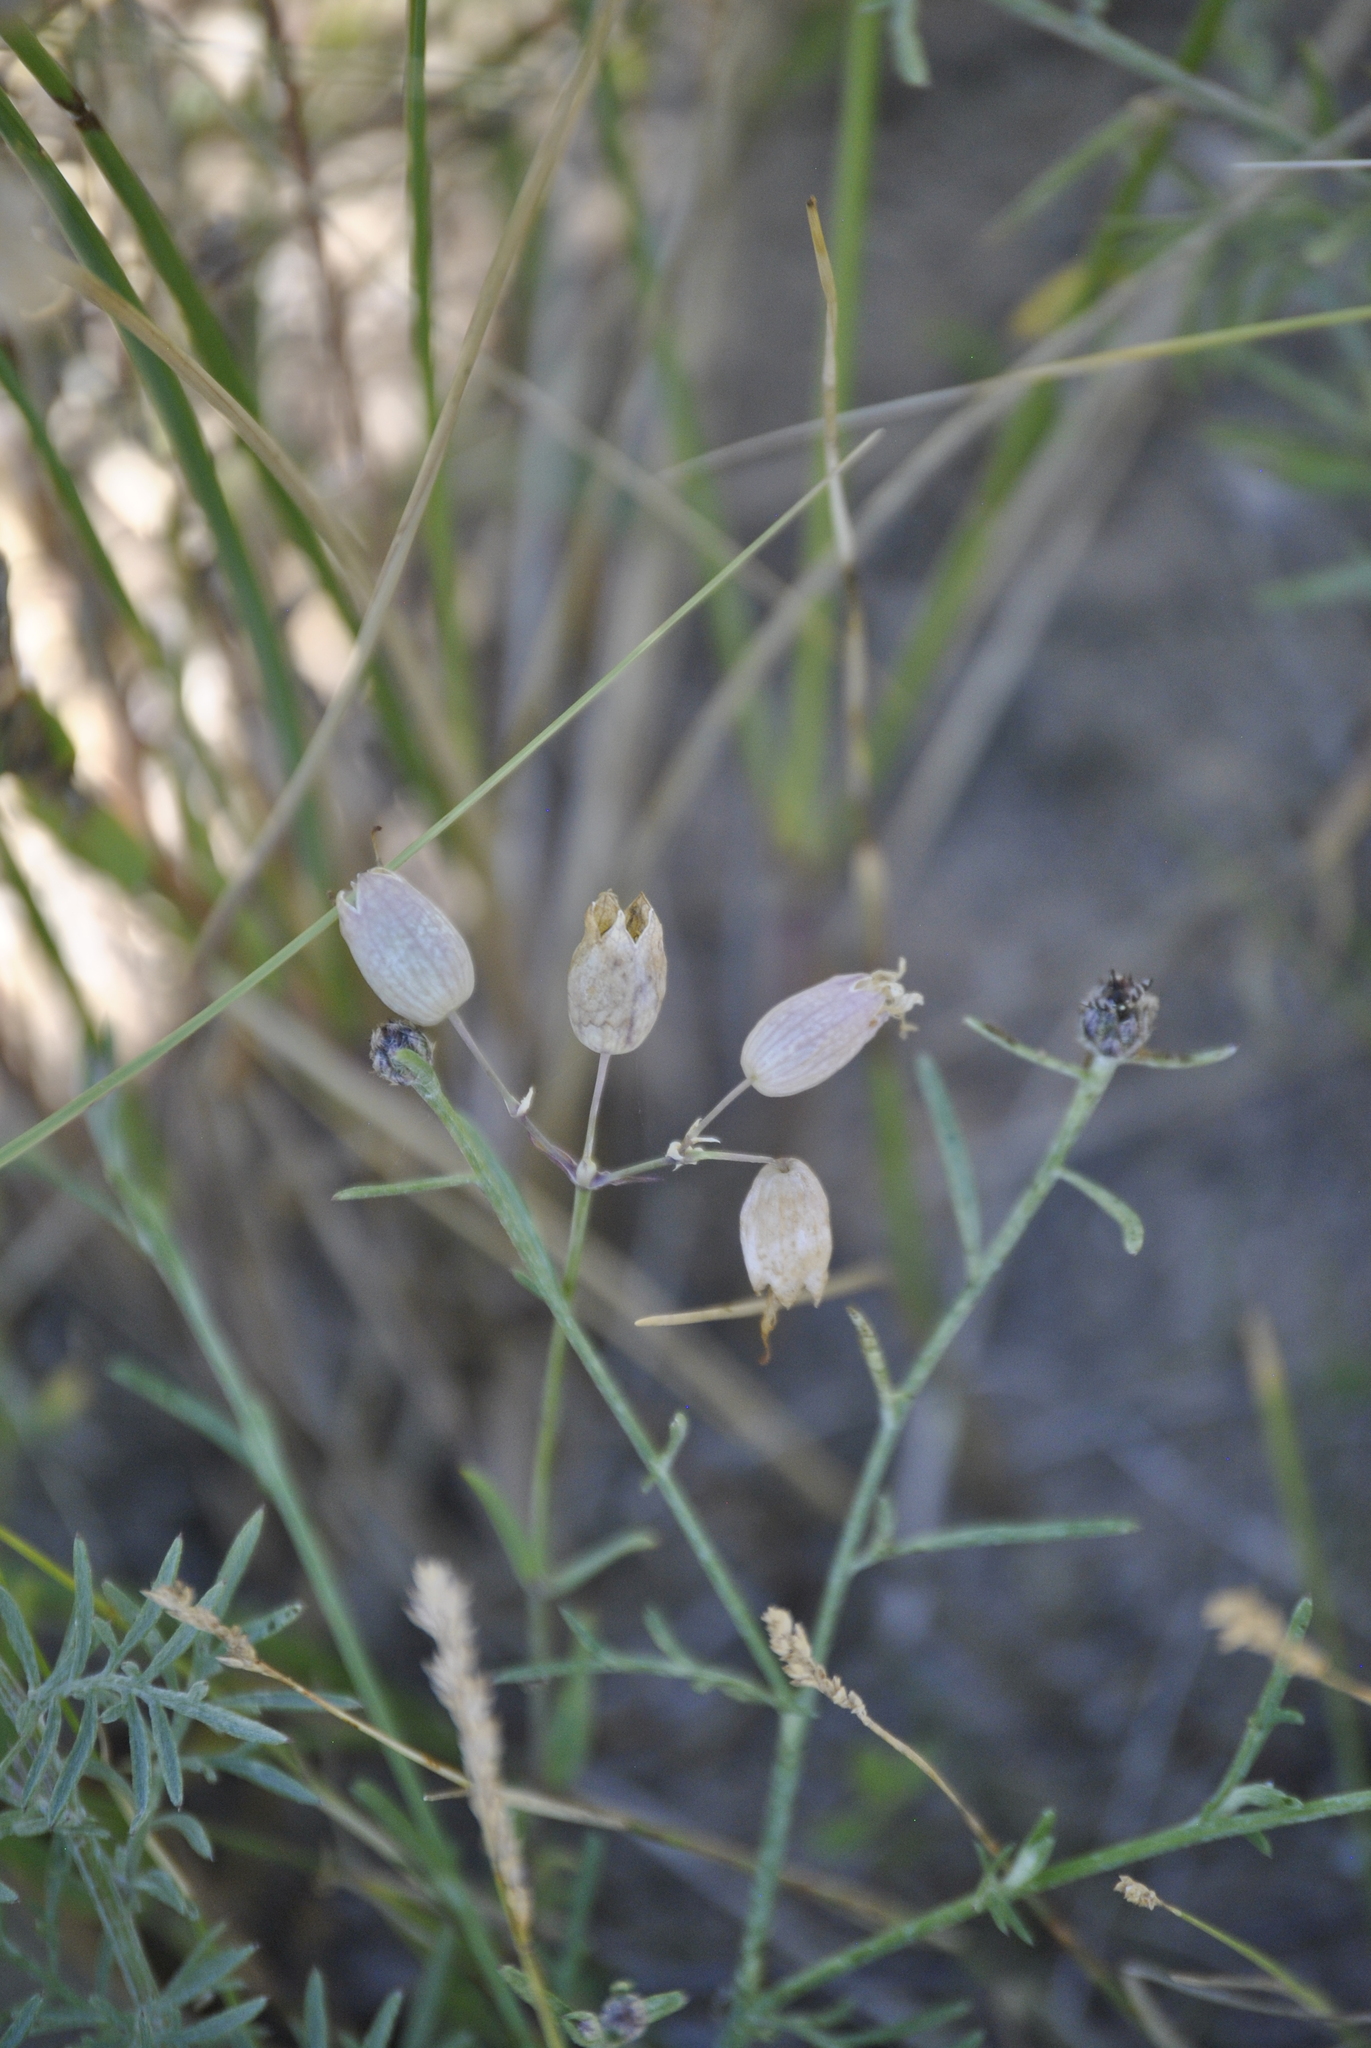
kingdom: Plantae
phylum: Tracheophyta
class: Magnoliopsida
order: Caryophyllales
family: Caryophyllaceae
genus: Silene
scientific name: Silene vulgaris
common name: Bladder campion
